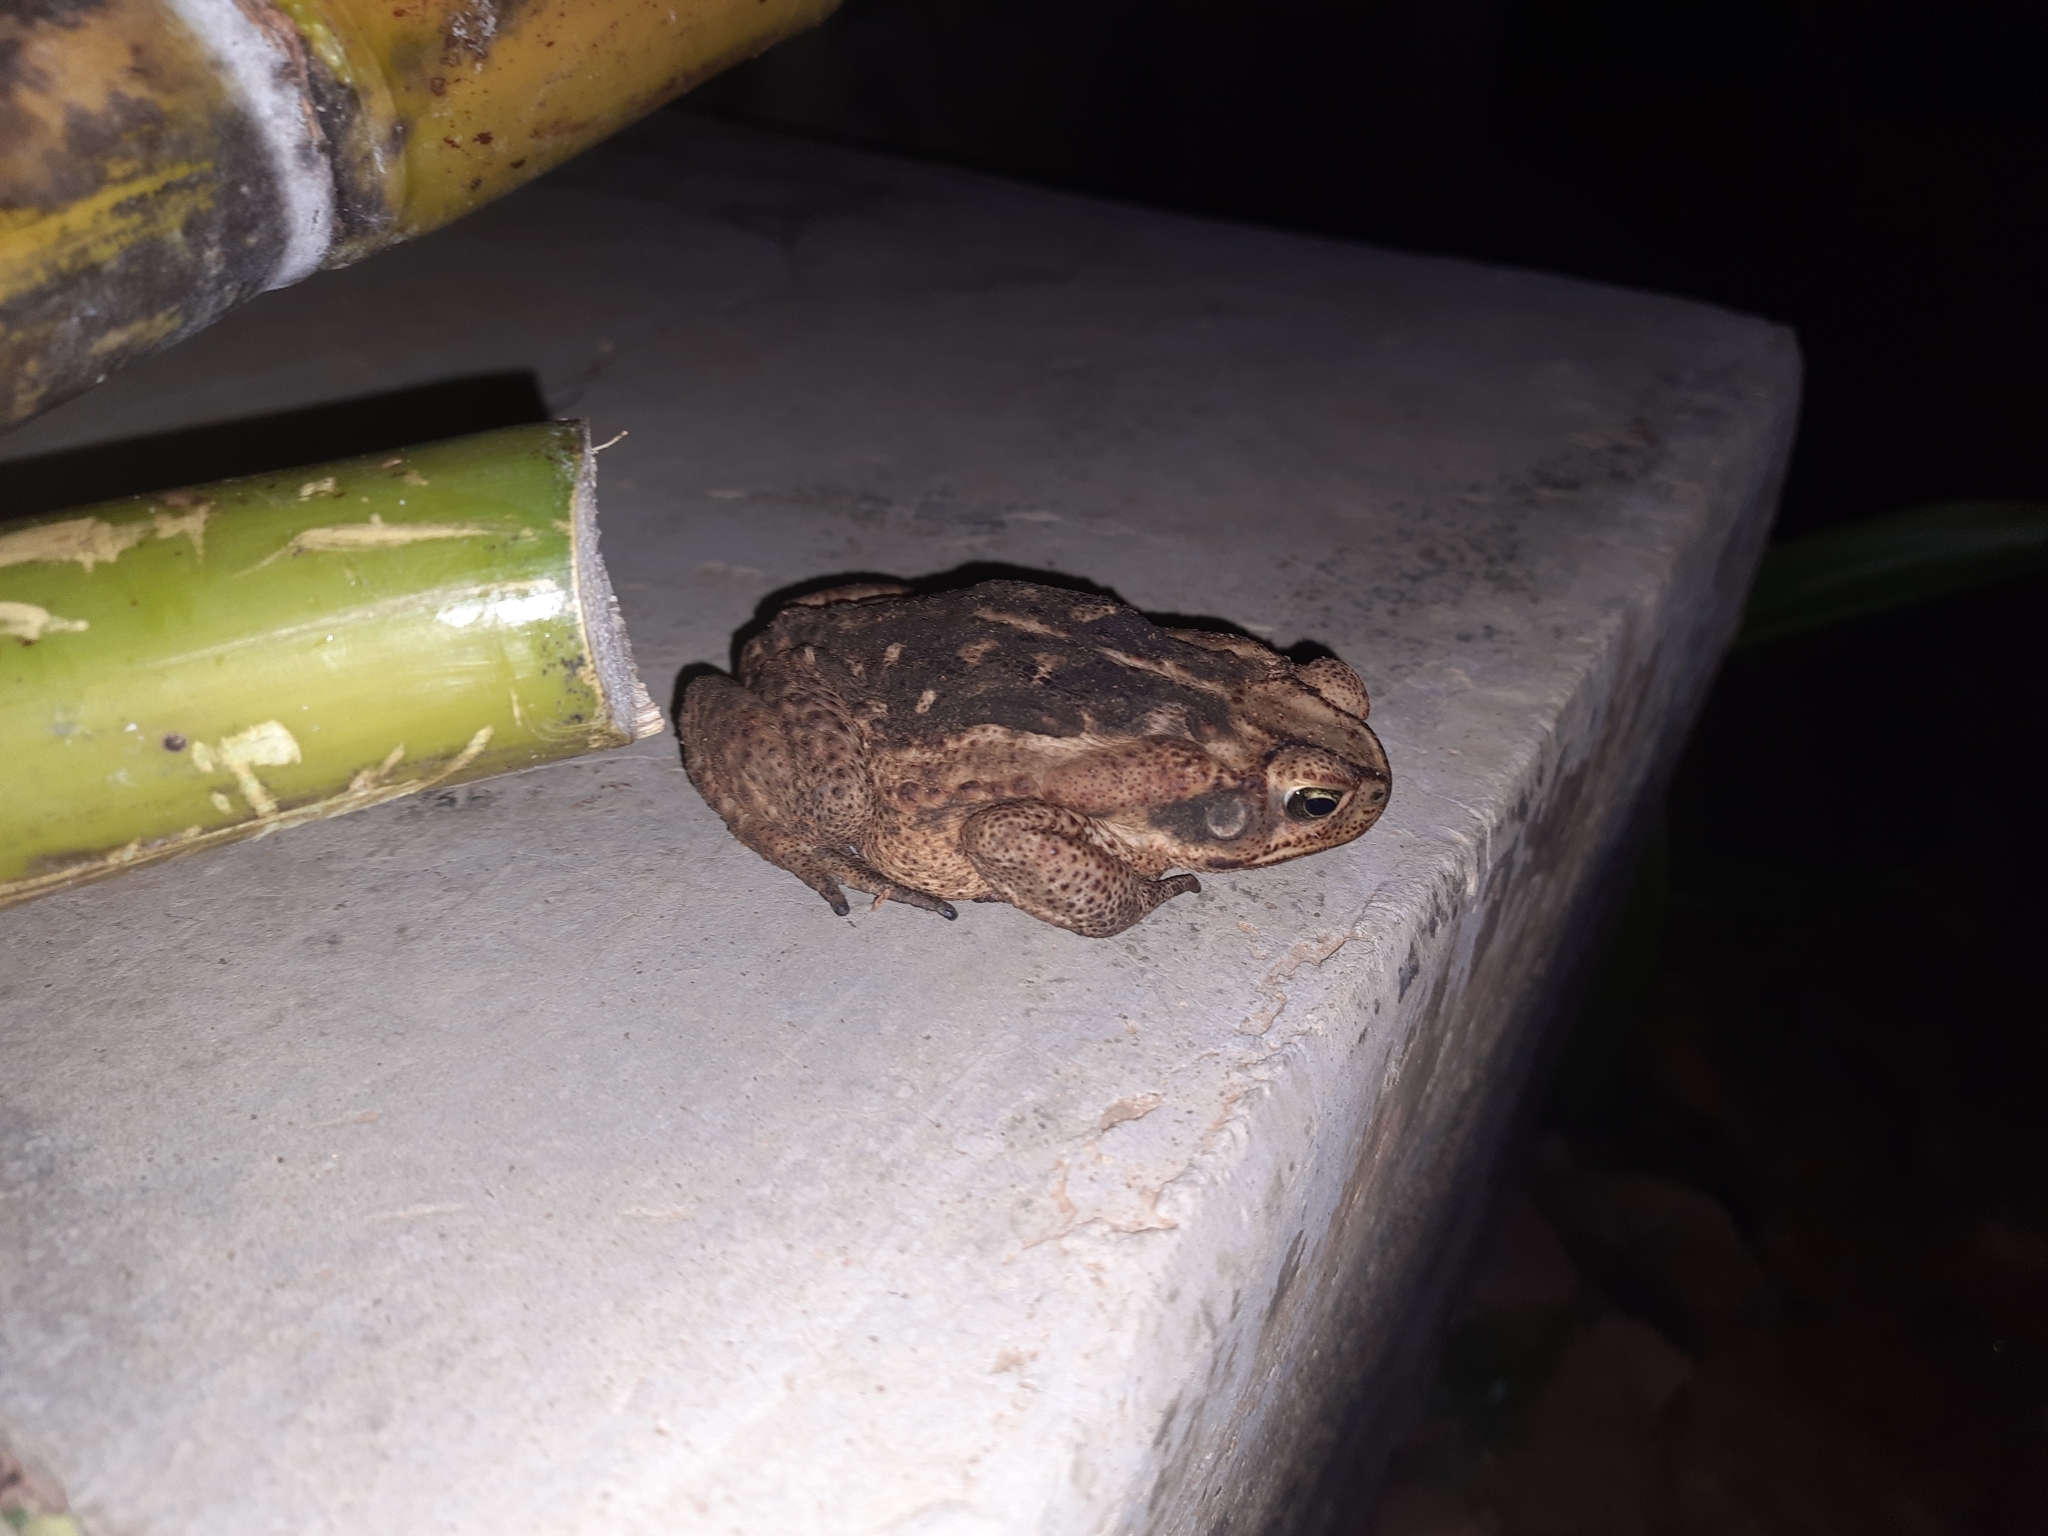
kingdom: Animalia
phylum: Chordata
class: Amphibia
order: Anura
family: Bufonidae
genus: Rhinella
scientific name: Rhinella diptycha
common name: Cope's toad
